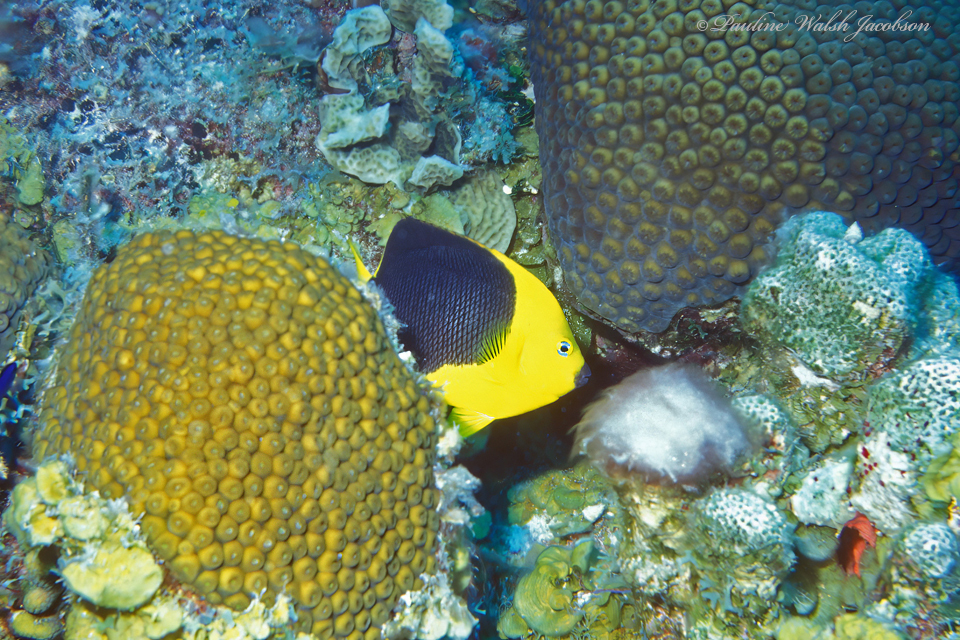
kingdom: Animalia
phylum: Chordata
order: Perciformes
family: Pomacanthidae
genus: Holacanthus
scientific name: Holacanthus tricolor
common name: Rock beauty
